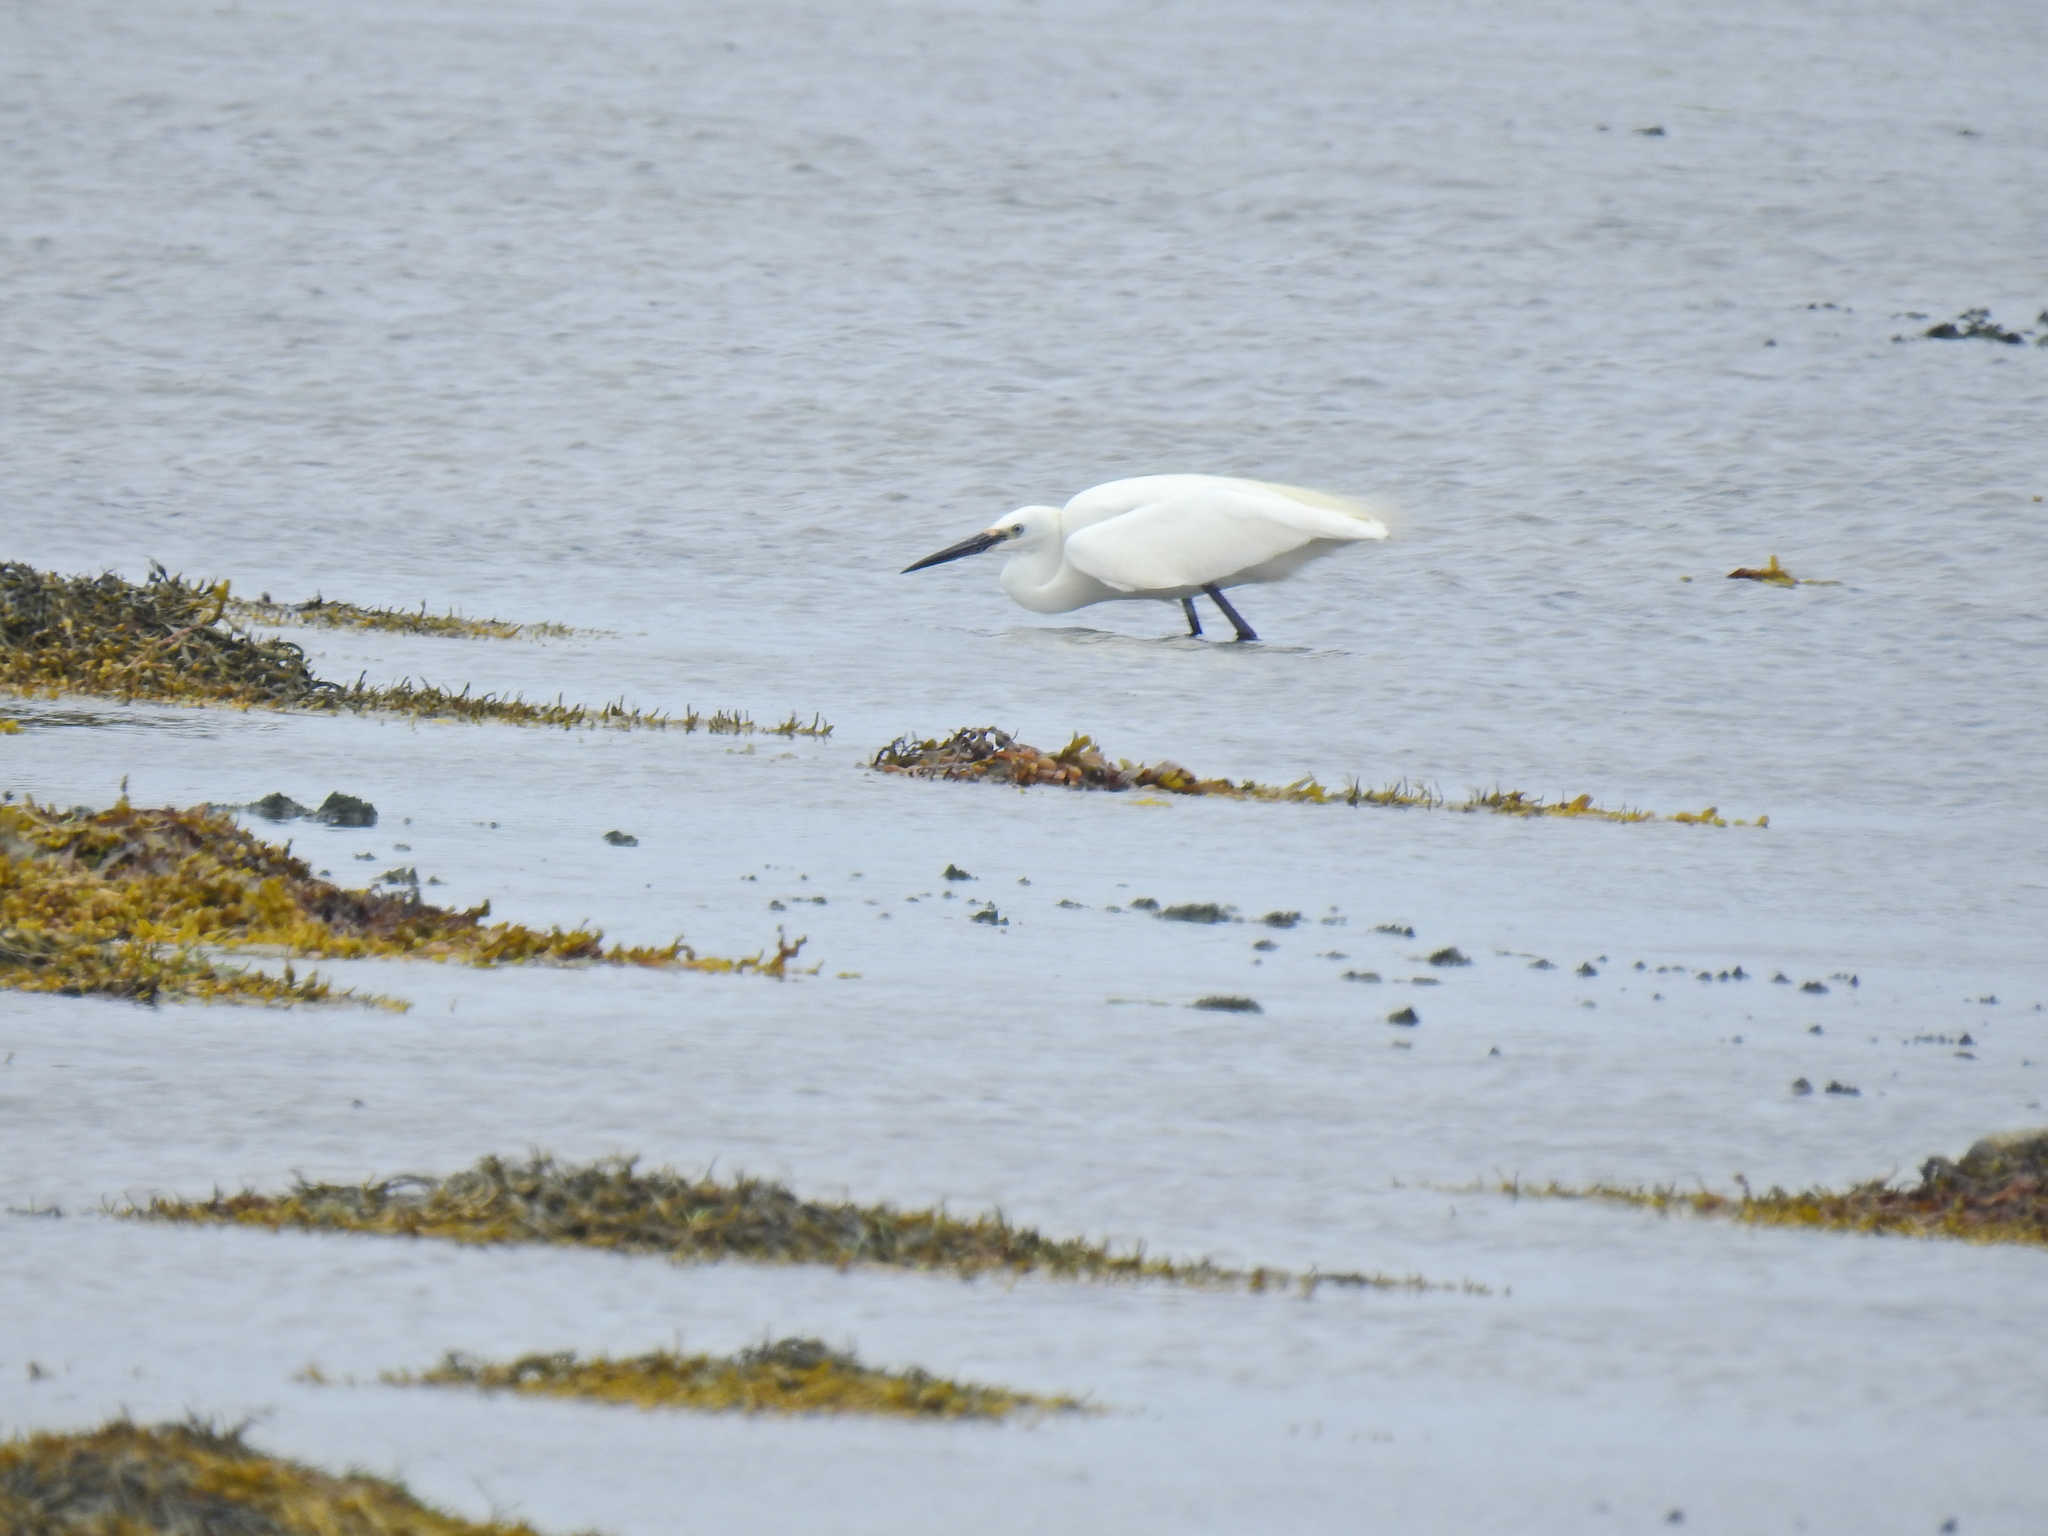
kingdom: Animalia
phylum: Chordata
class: Aves
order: Pelecaniformes
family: Ardeidae
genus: Egretta
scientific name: Egretta garzetta
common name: Little egret
